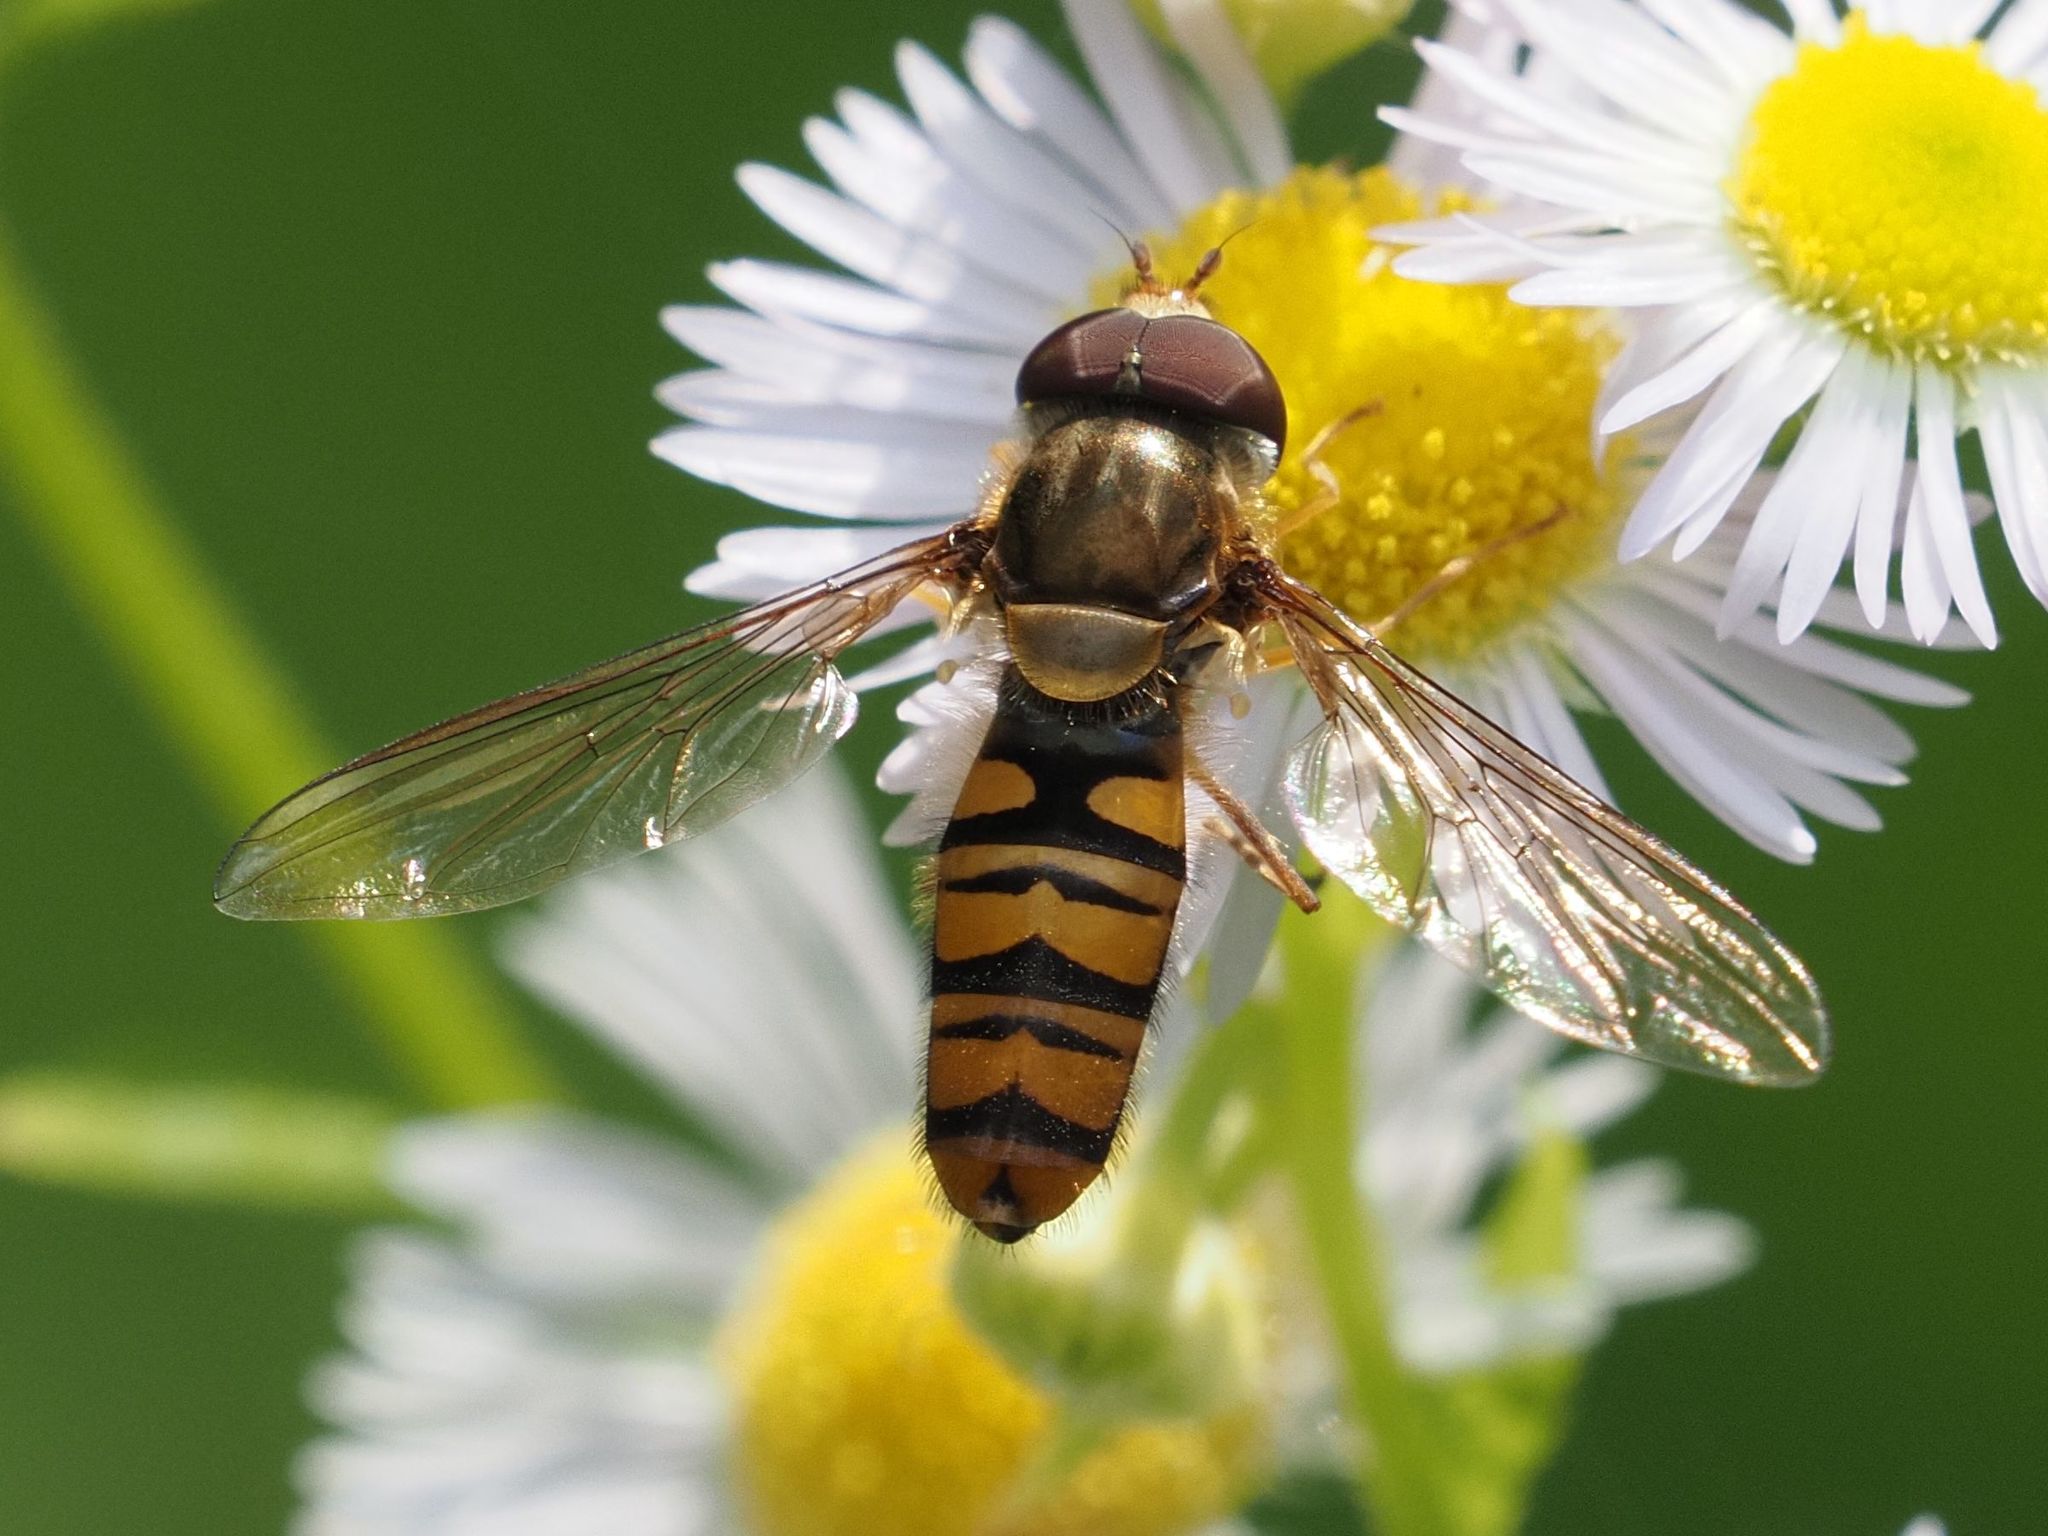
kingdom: Animalia
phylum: Arthropoda
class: Insecta
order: Diptera
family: Syrphidae
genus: Episyrphus
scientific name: Episyrphus balteatus
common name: Marmalade hoverfly
